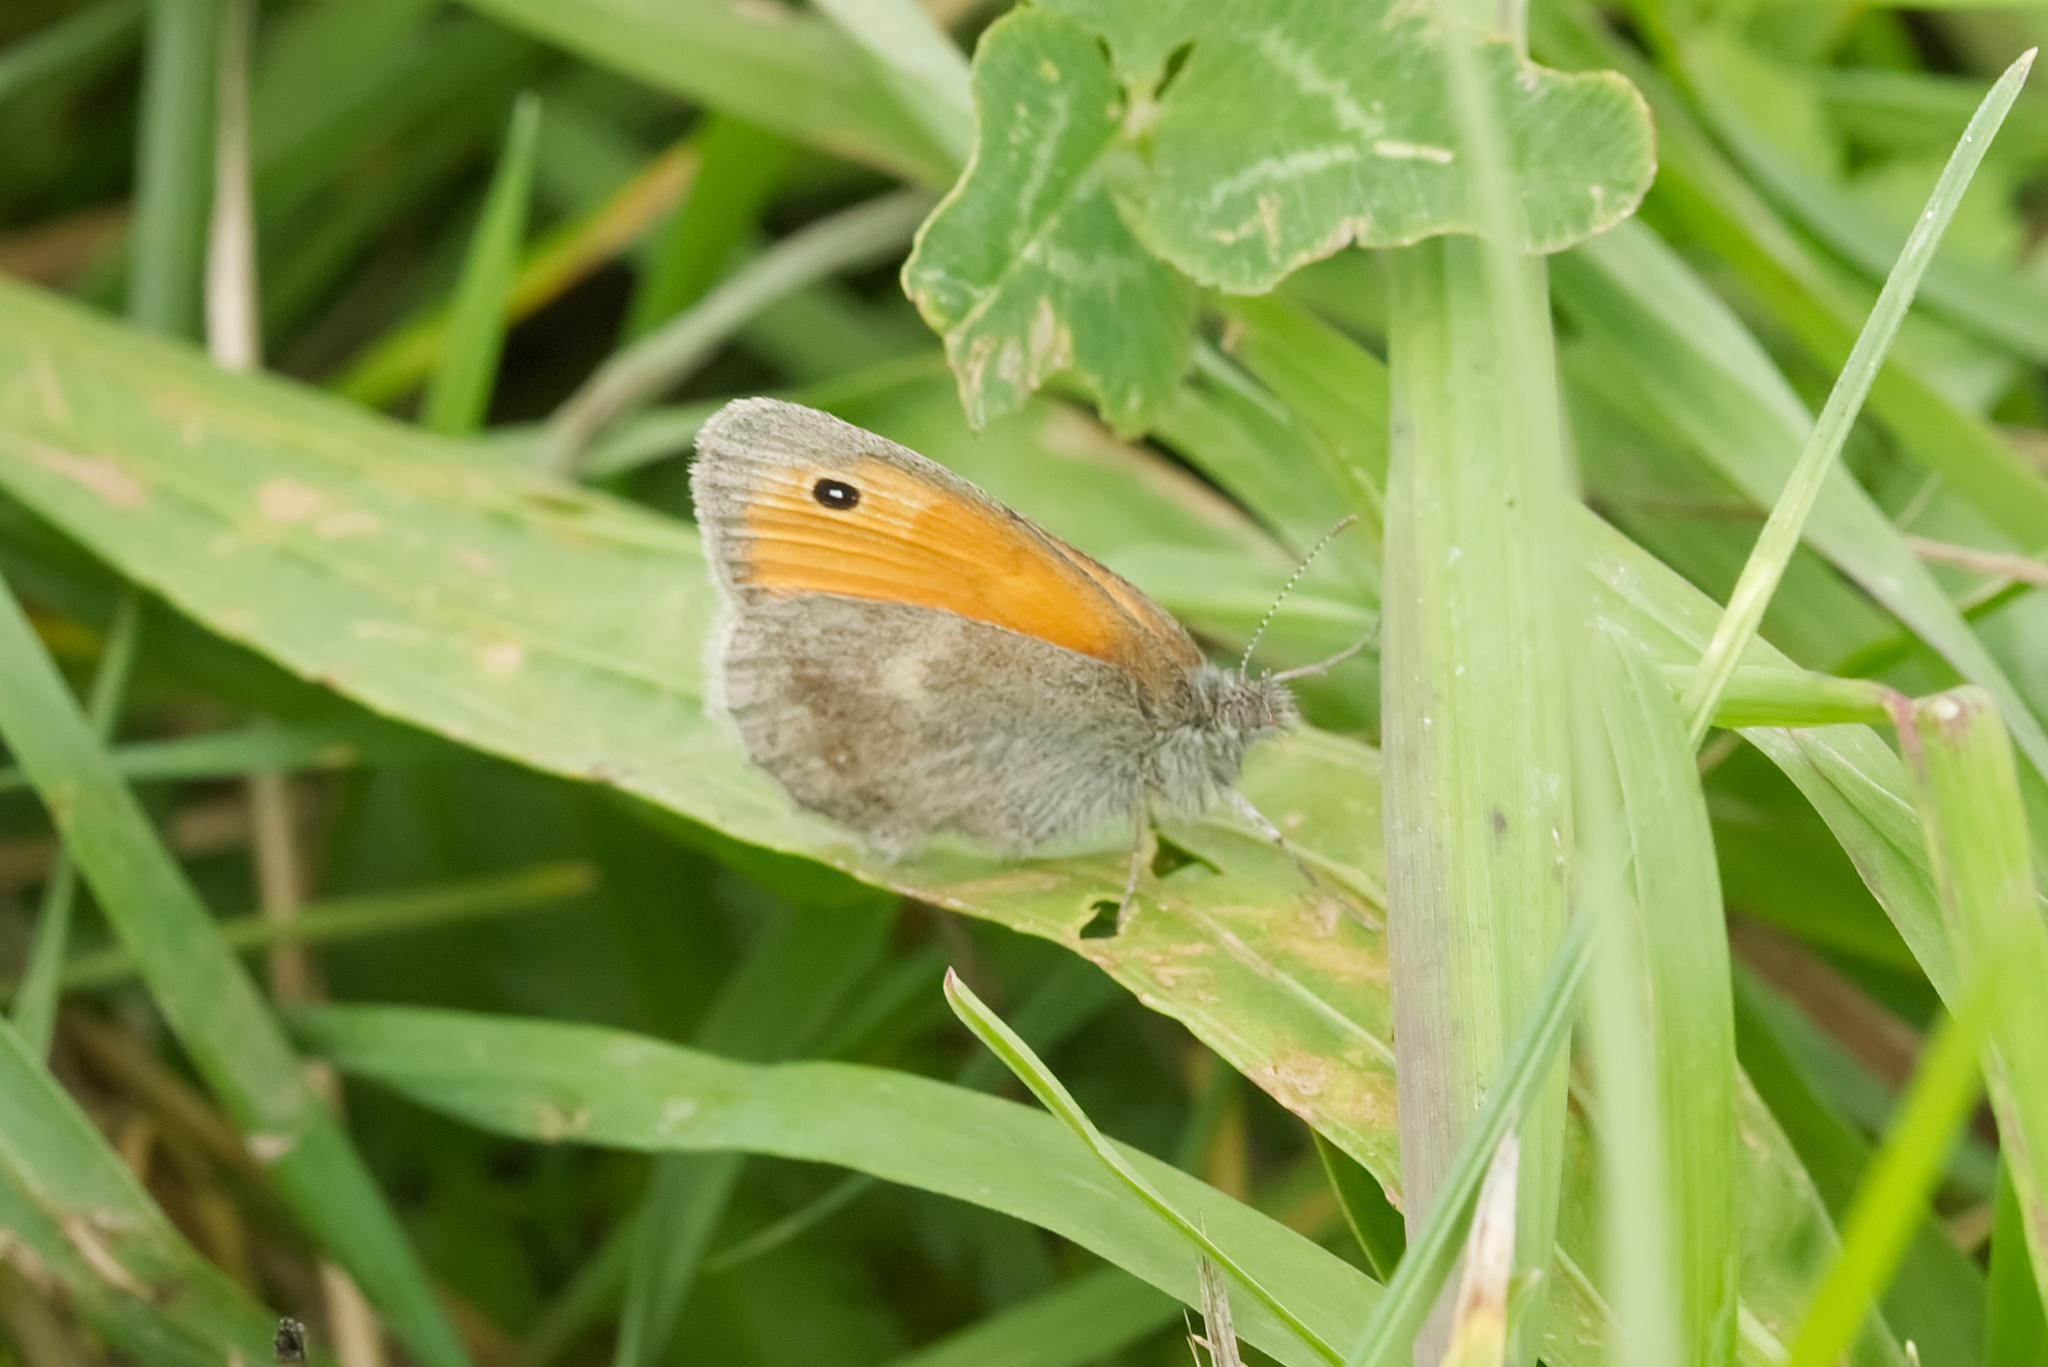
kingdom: Animalia
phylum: Arthropoda
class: Insecta
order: Lepidoptera
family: Nymphalidae
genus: Coenonympha
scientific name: Coenonympha pamphilus
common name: Small heath
